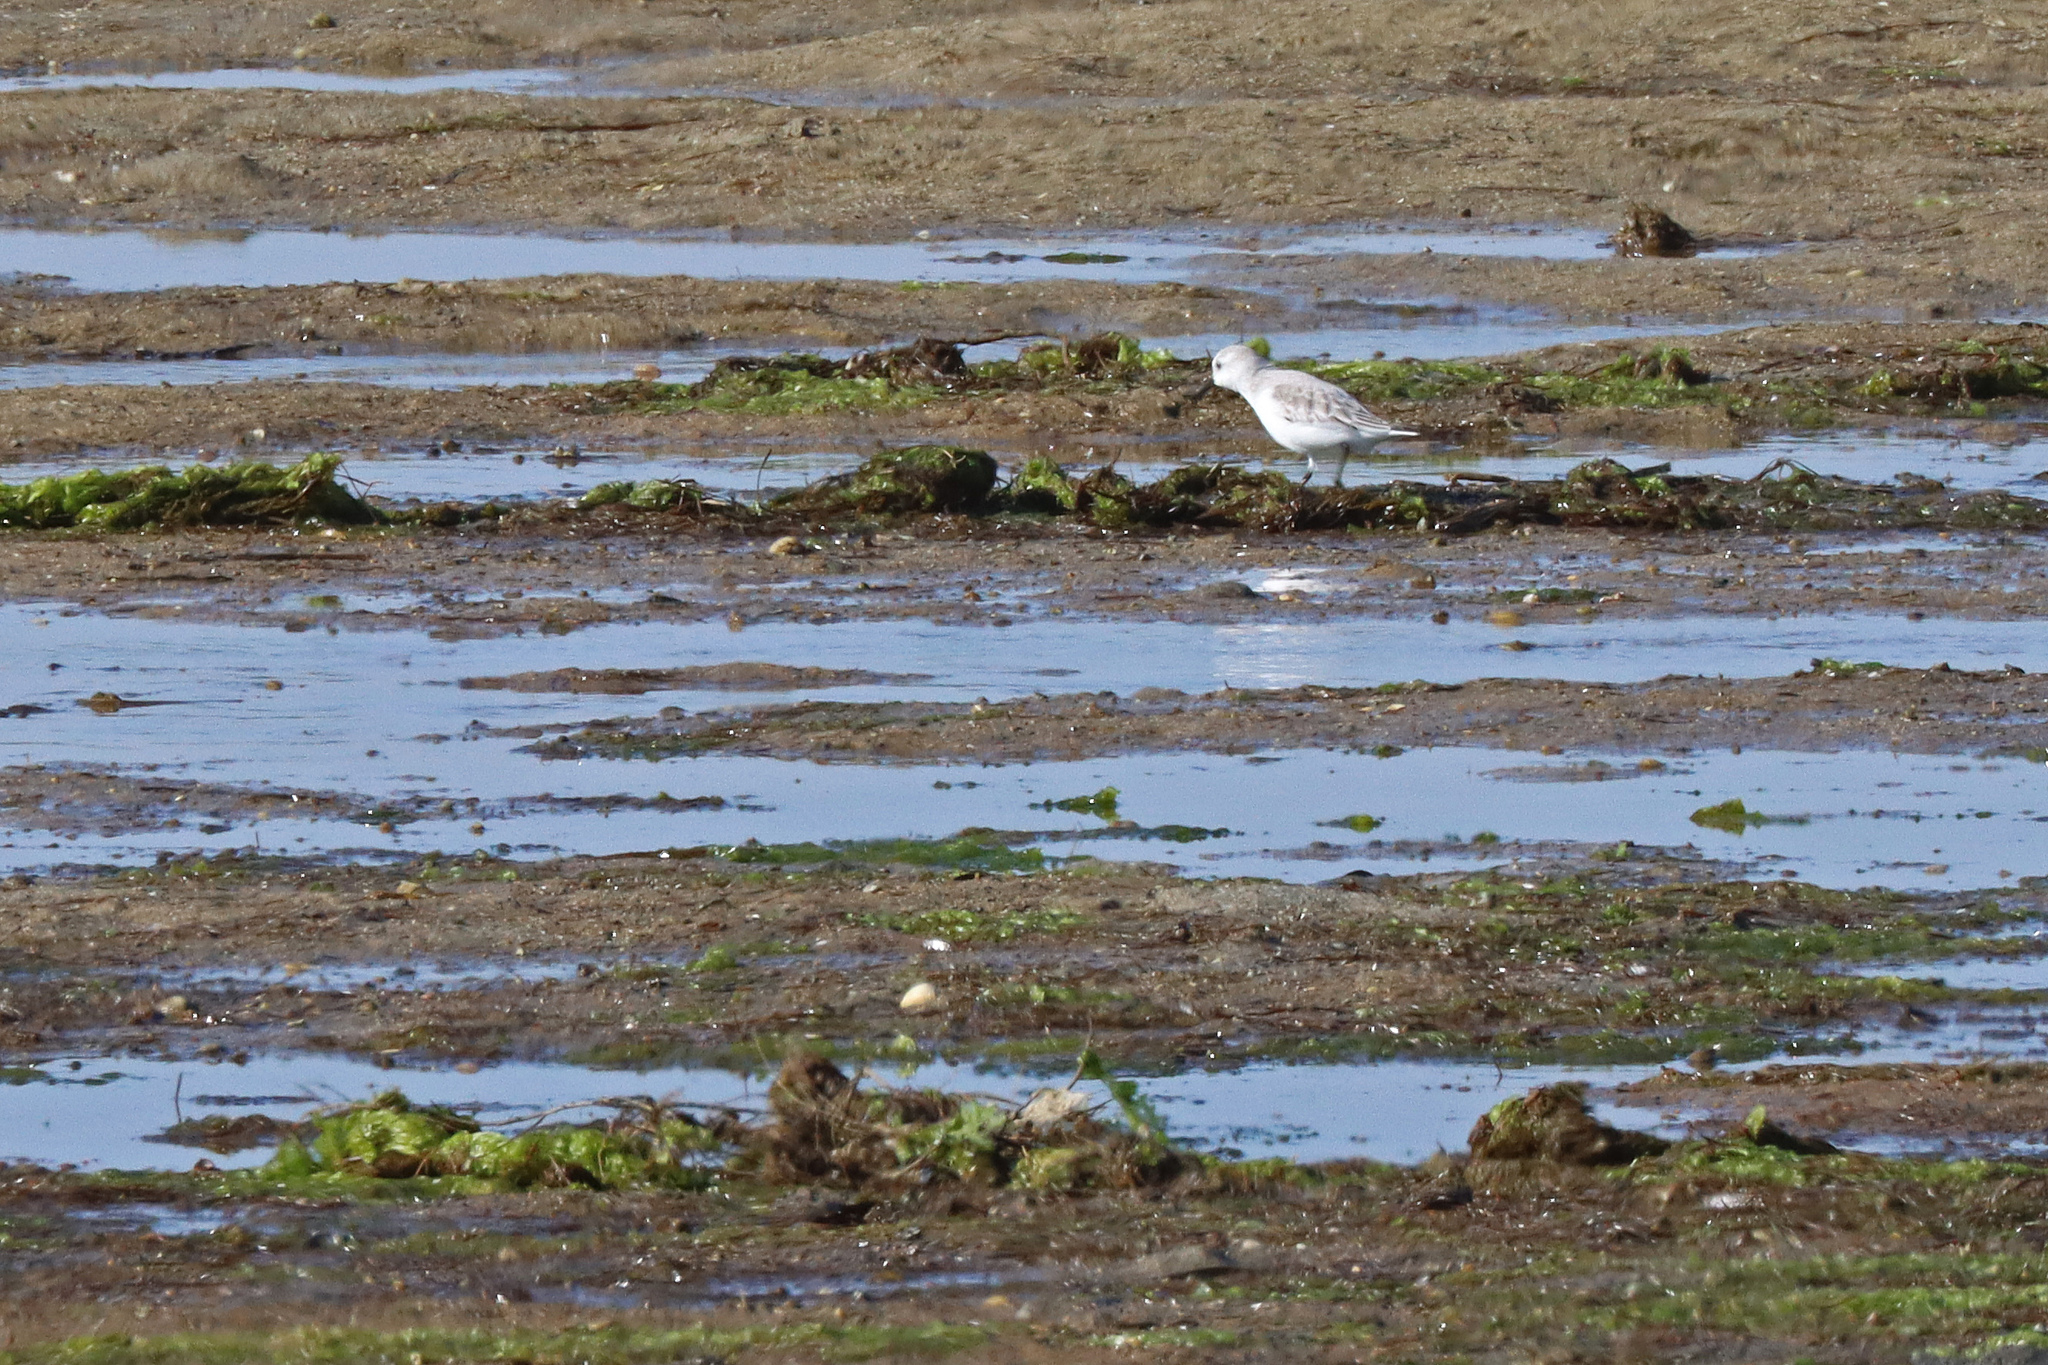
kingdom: Animalia
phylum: Chordata
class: Aves
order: Charadriiformes
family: Scolopacidae
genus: Calidris
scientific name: Calidris alba
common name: Sanderling
